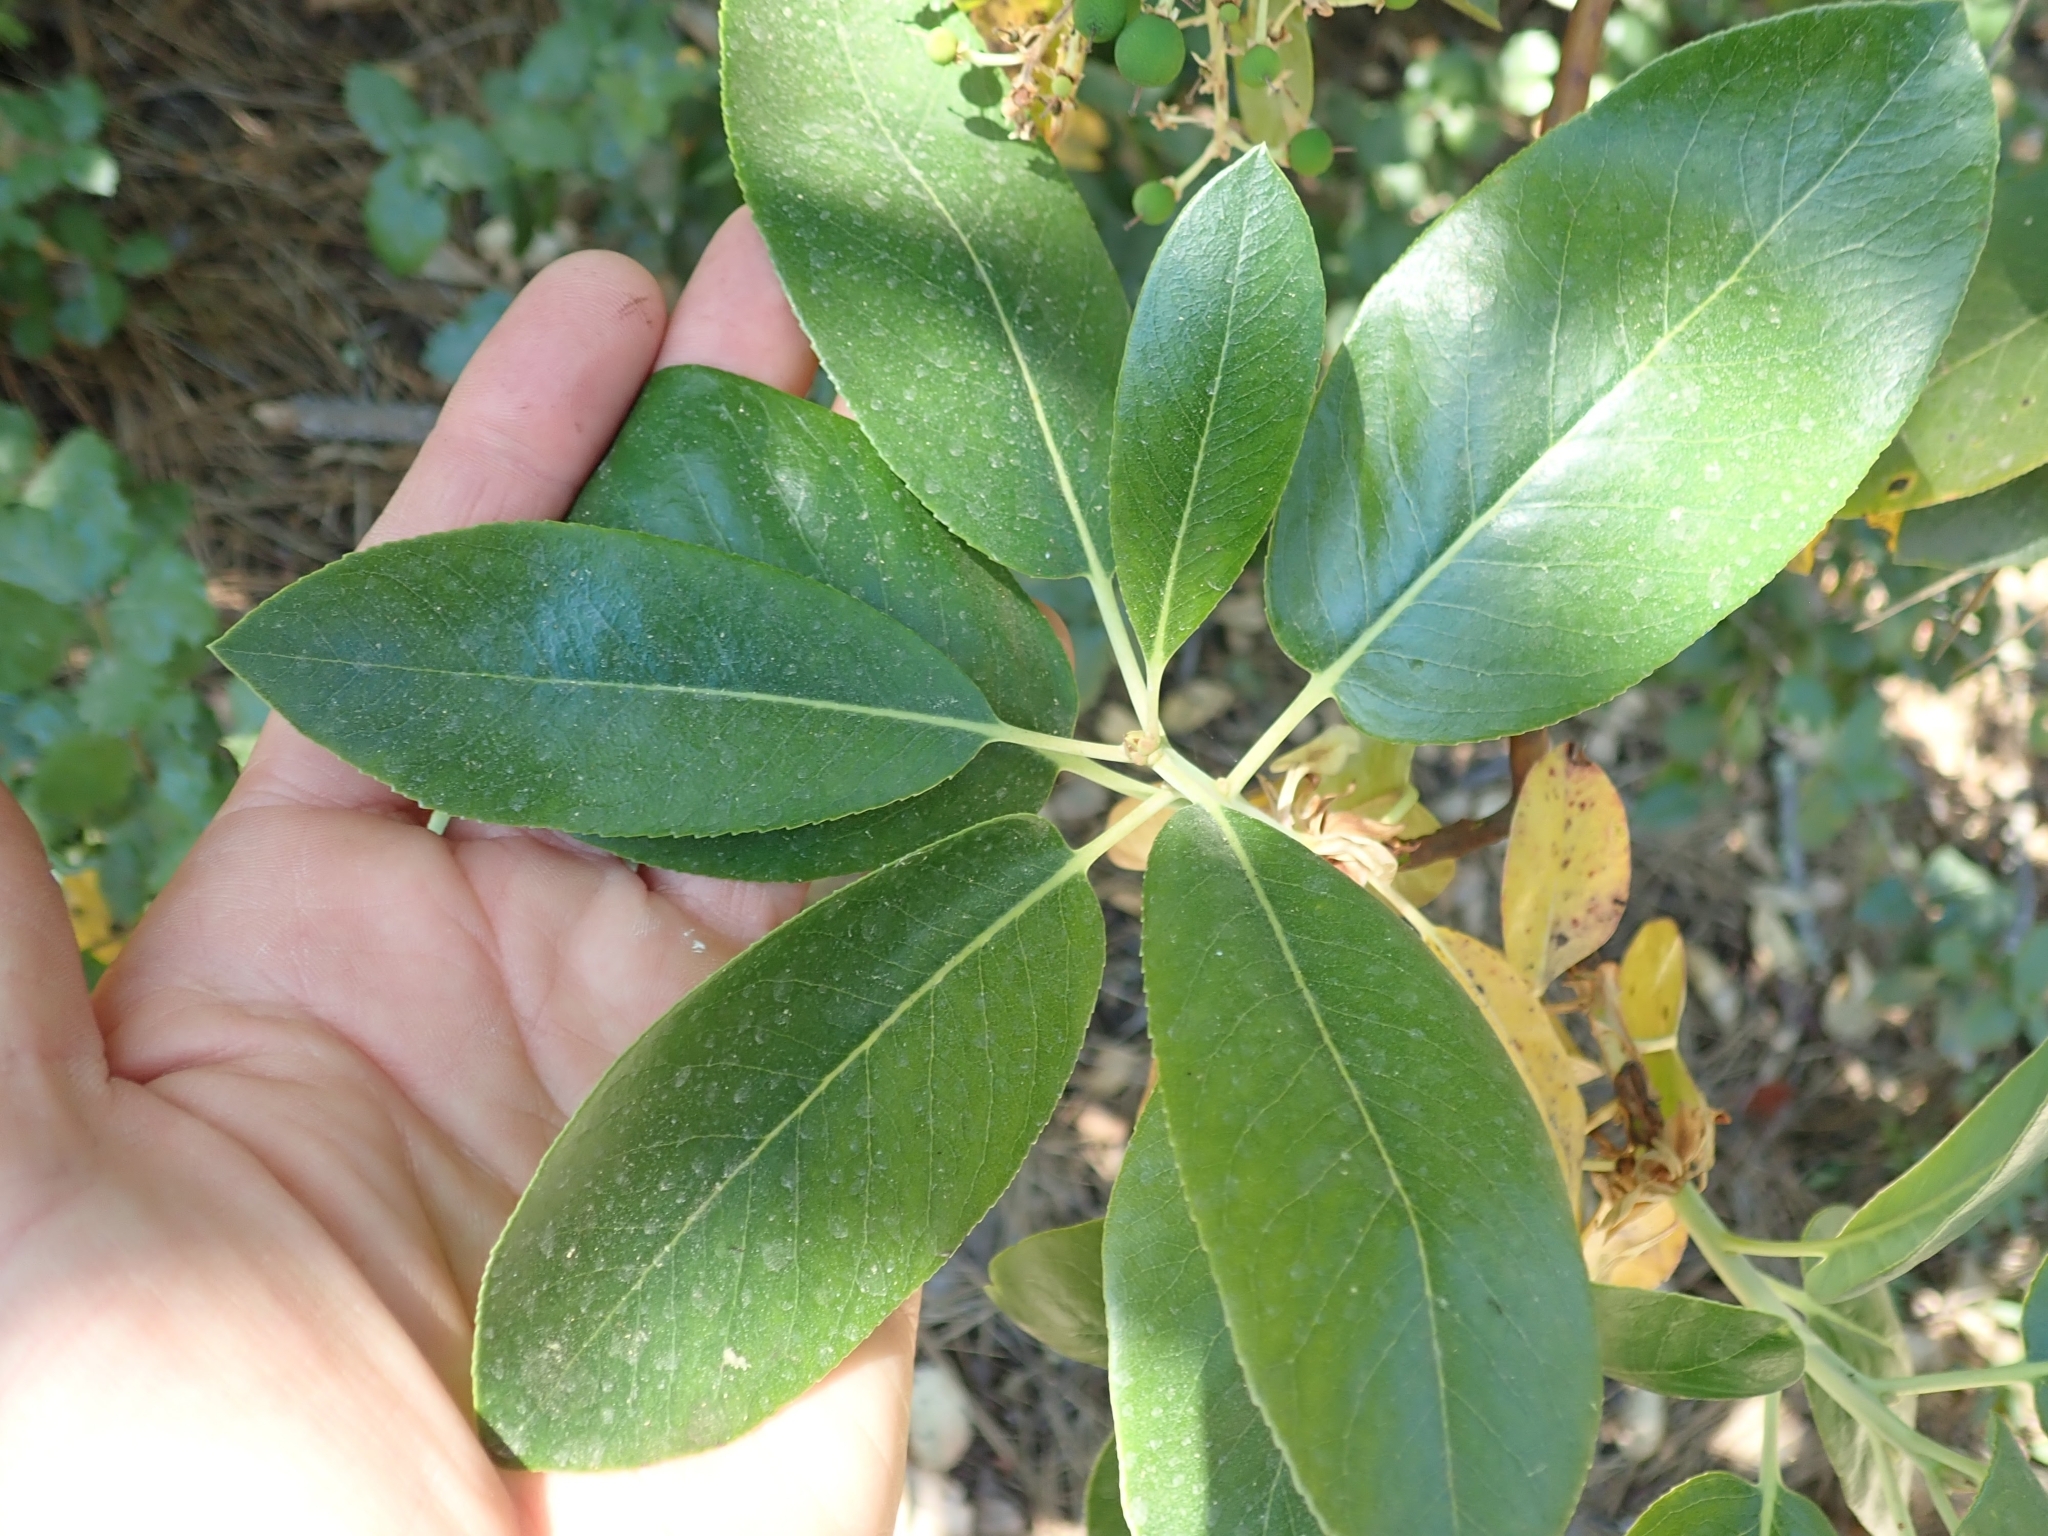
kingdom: Plantae
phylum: Tracheophyta
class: Magnoliopsida
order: Ericales
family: Ericaceae
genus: Arbutus
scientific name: Arbutus menziesii
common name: Pacific madrone
